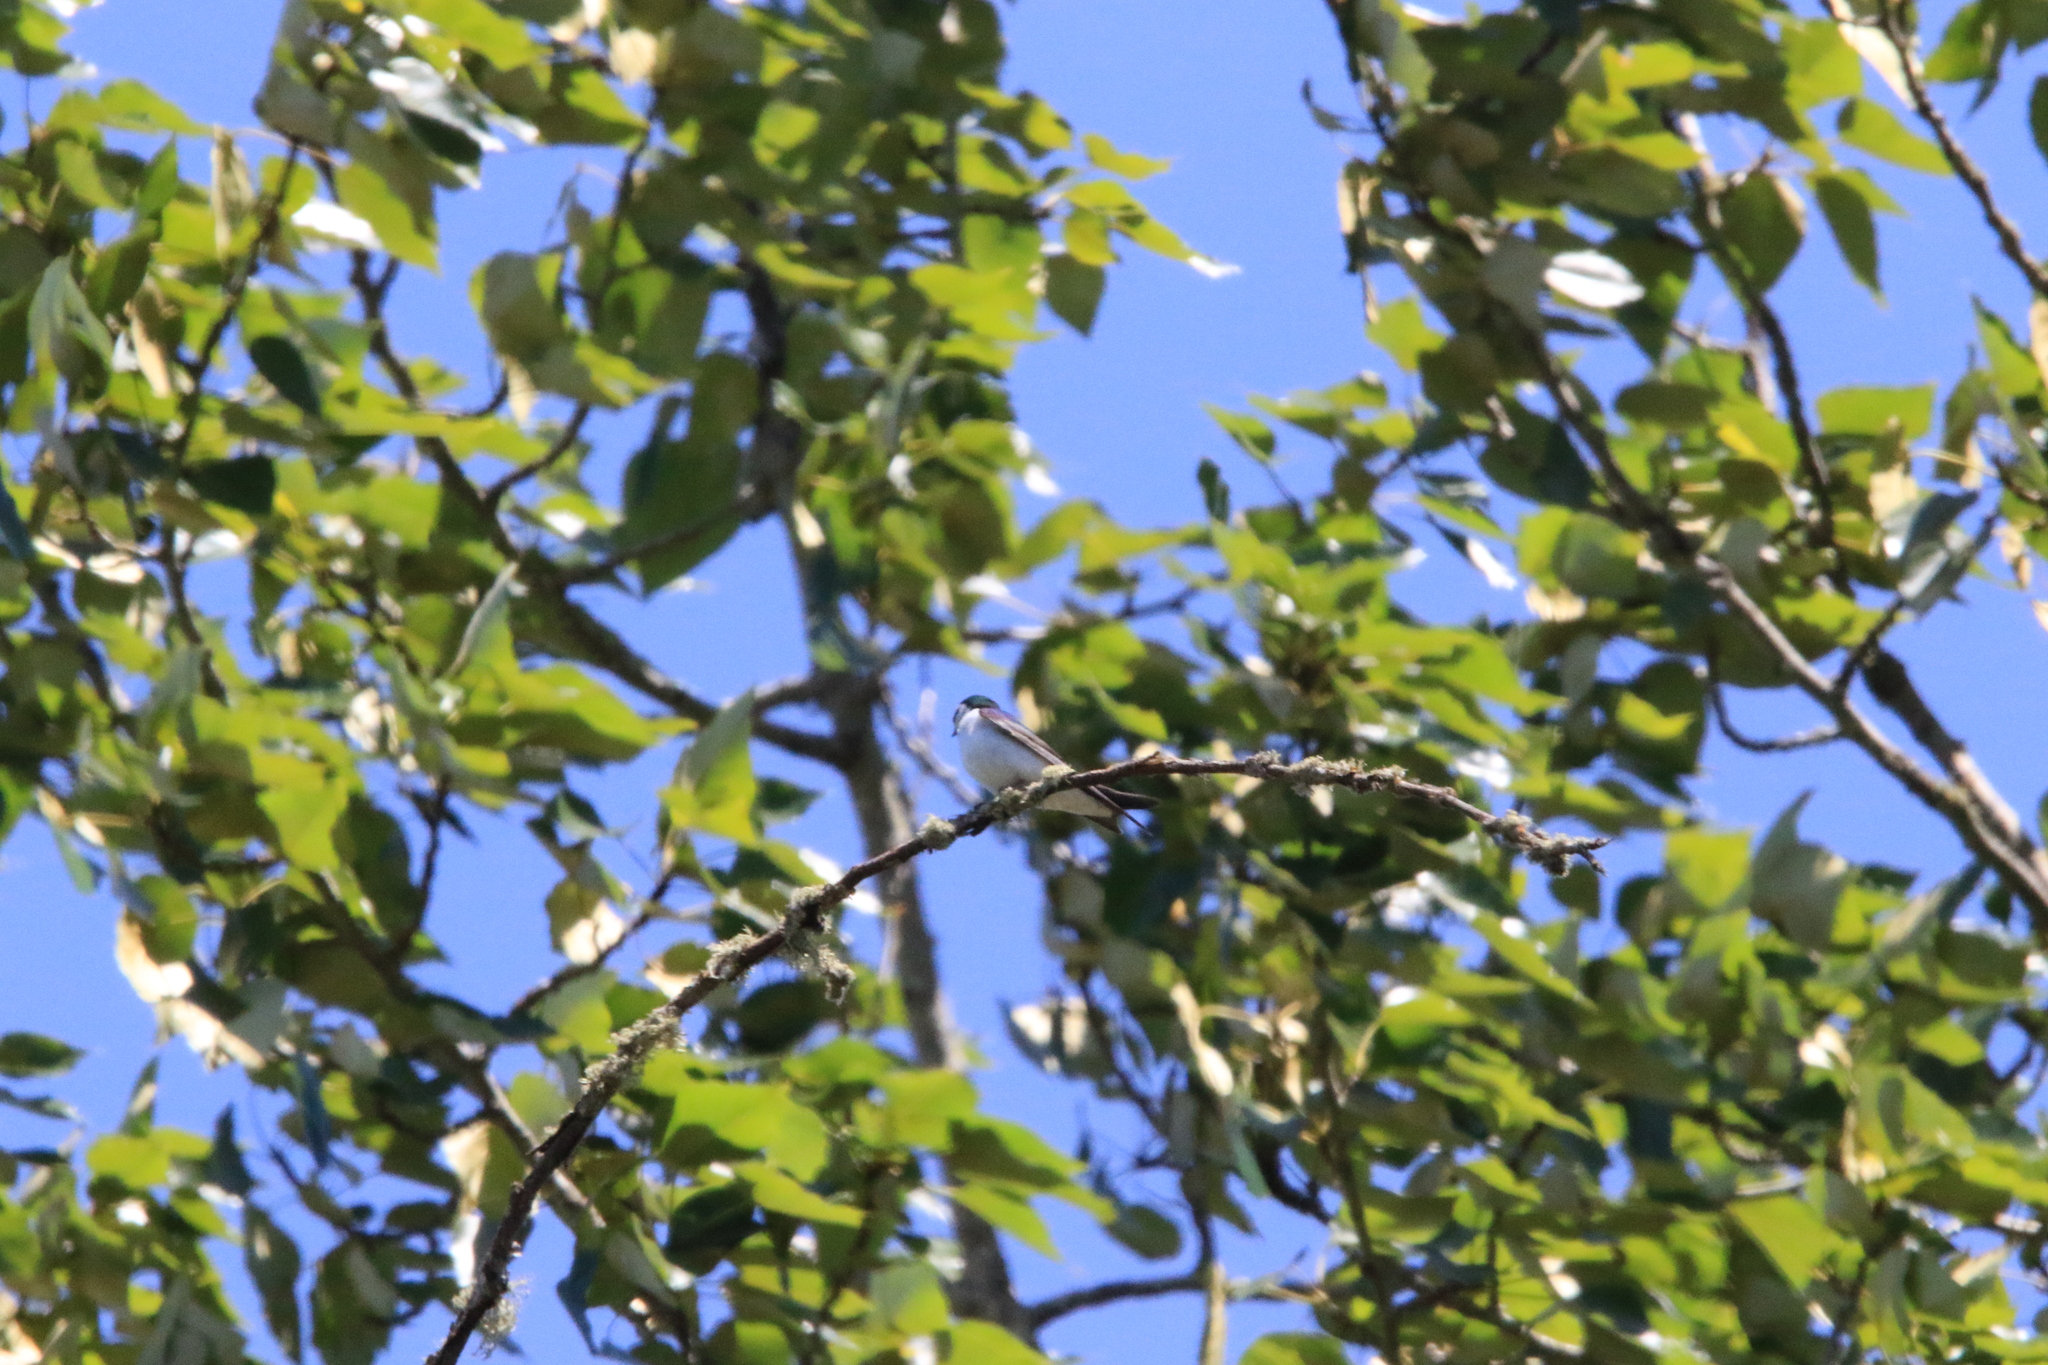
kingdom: Animalia
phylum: Chordata
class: Aves
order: Passeriformes
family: Hirundinidae
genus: Tachycineta
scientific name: Tachycineta thalassina
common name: Violet-green swallow
